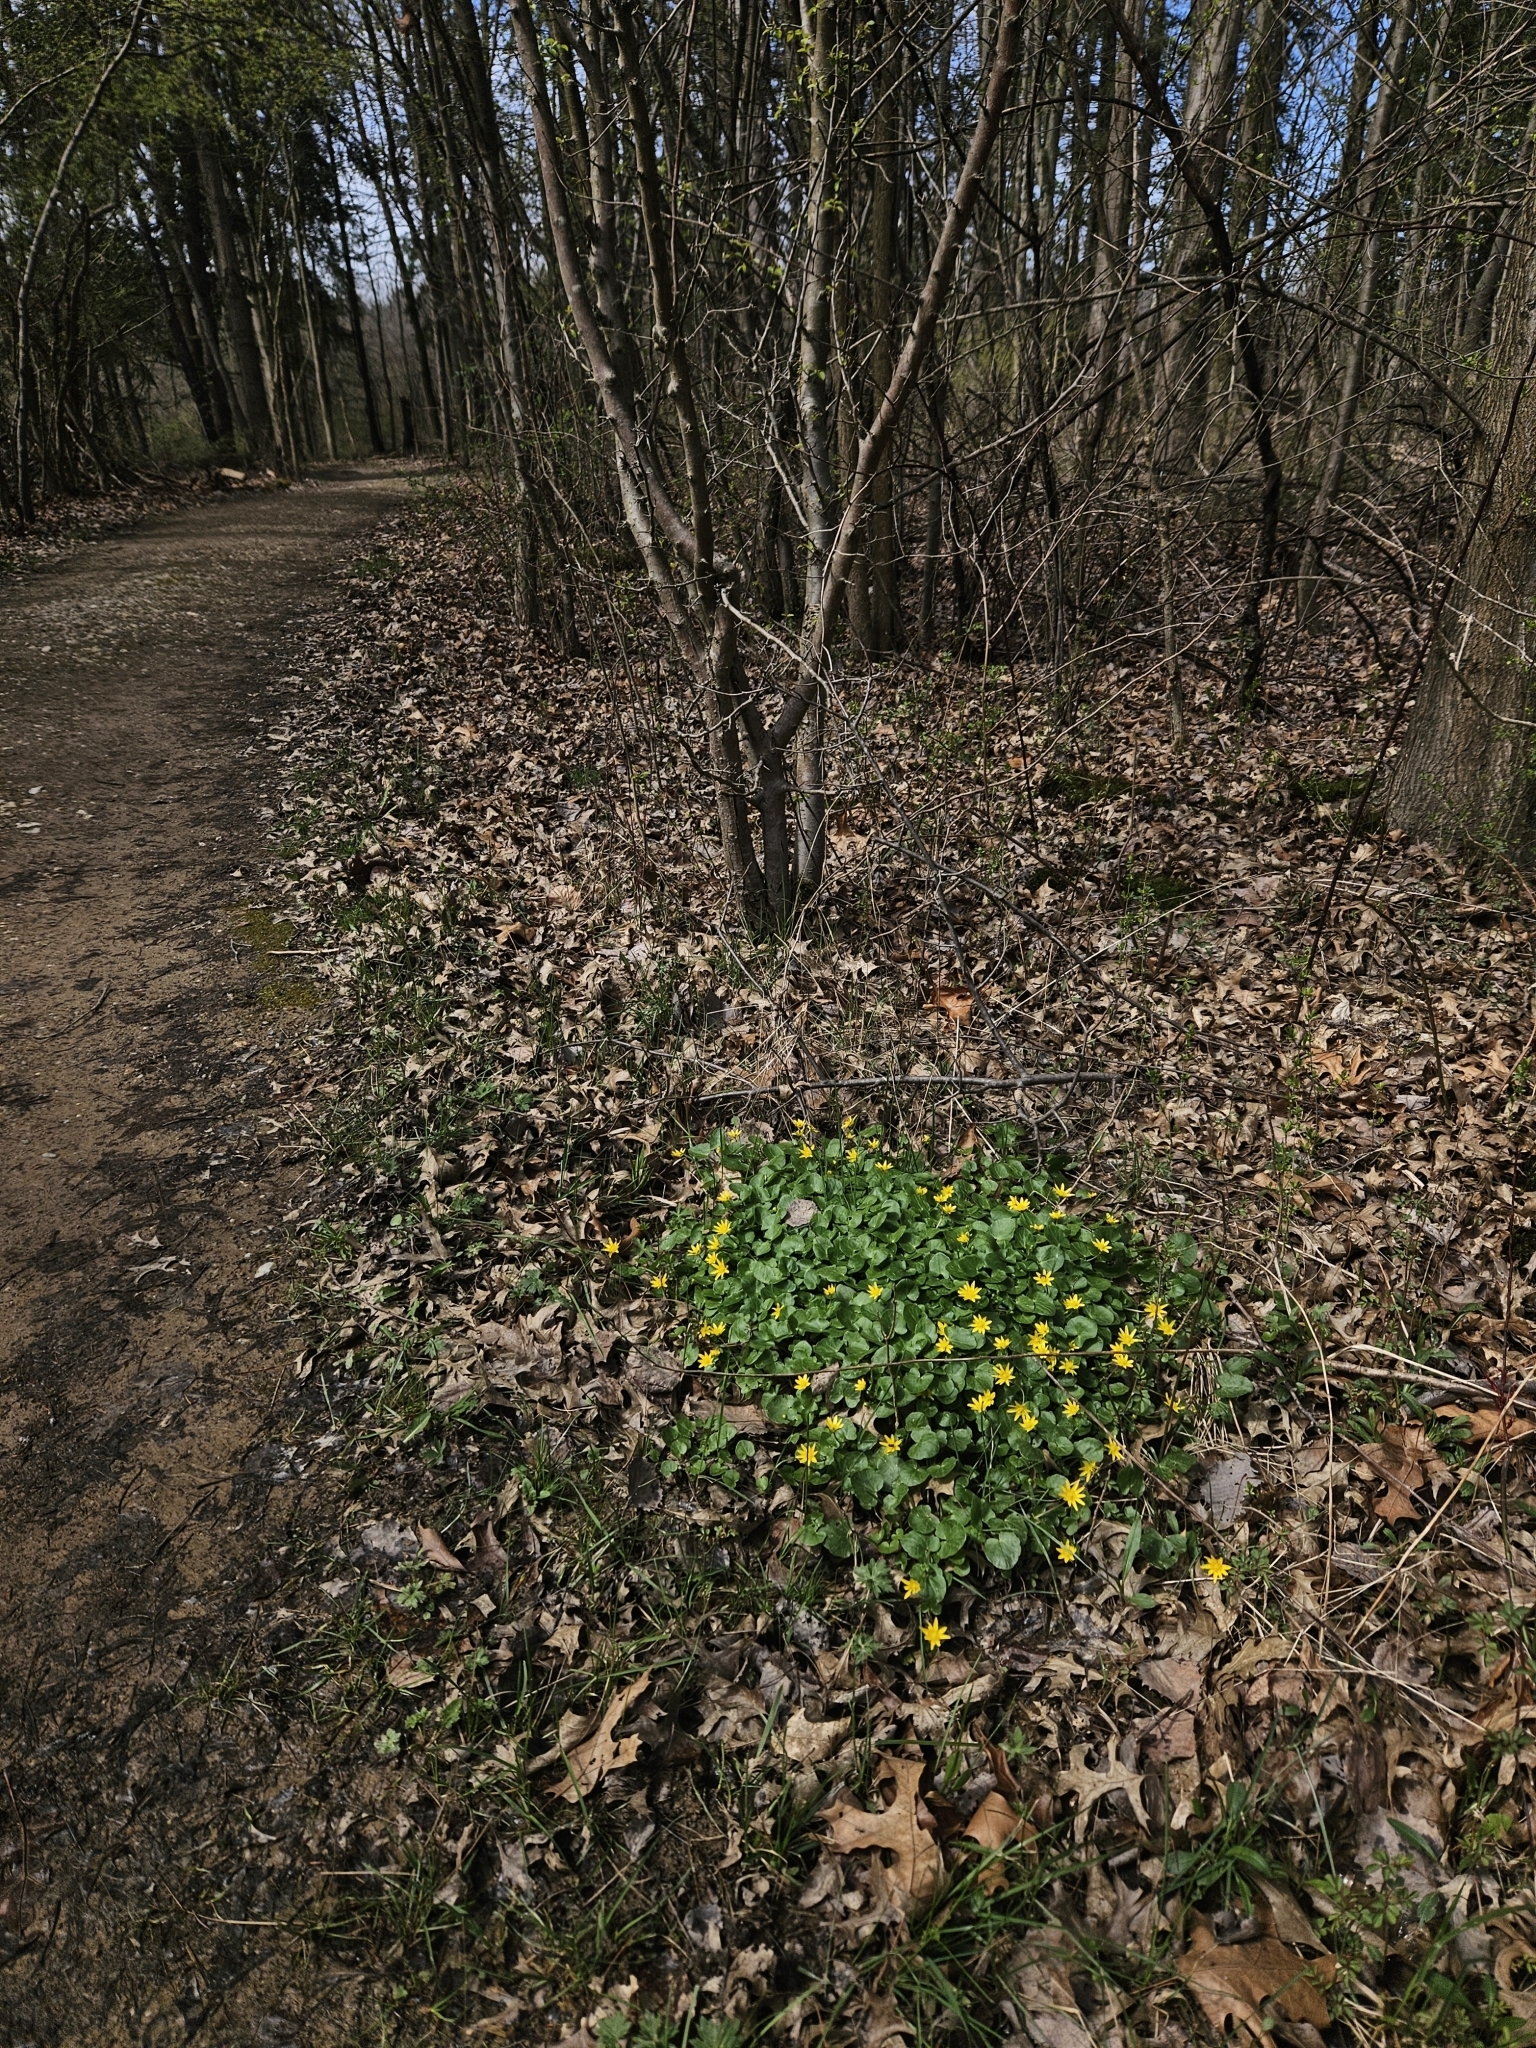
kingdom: Plantae
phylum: Tracheophyta
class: Magnoliopsida
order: Ranunculales
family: Ranunculaceae
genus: Ficaria
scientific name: Ficaria verna
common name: Lesser celandine
